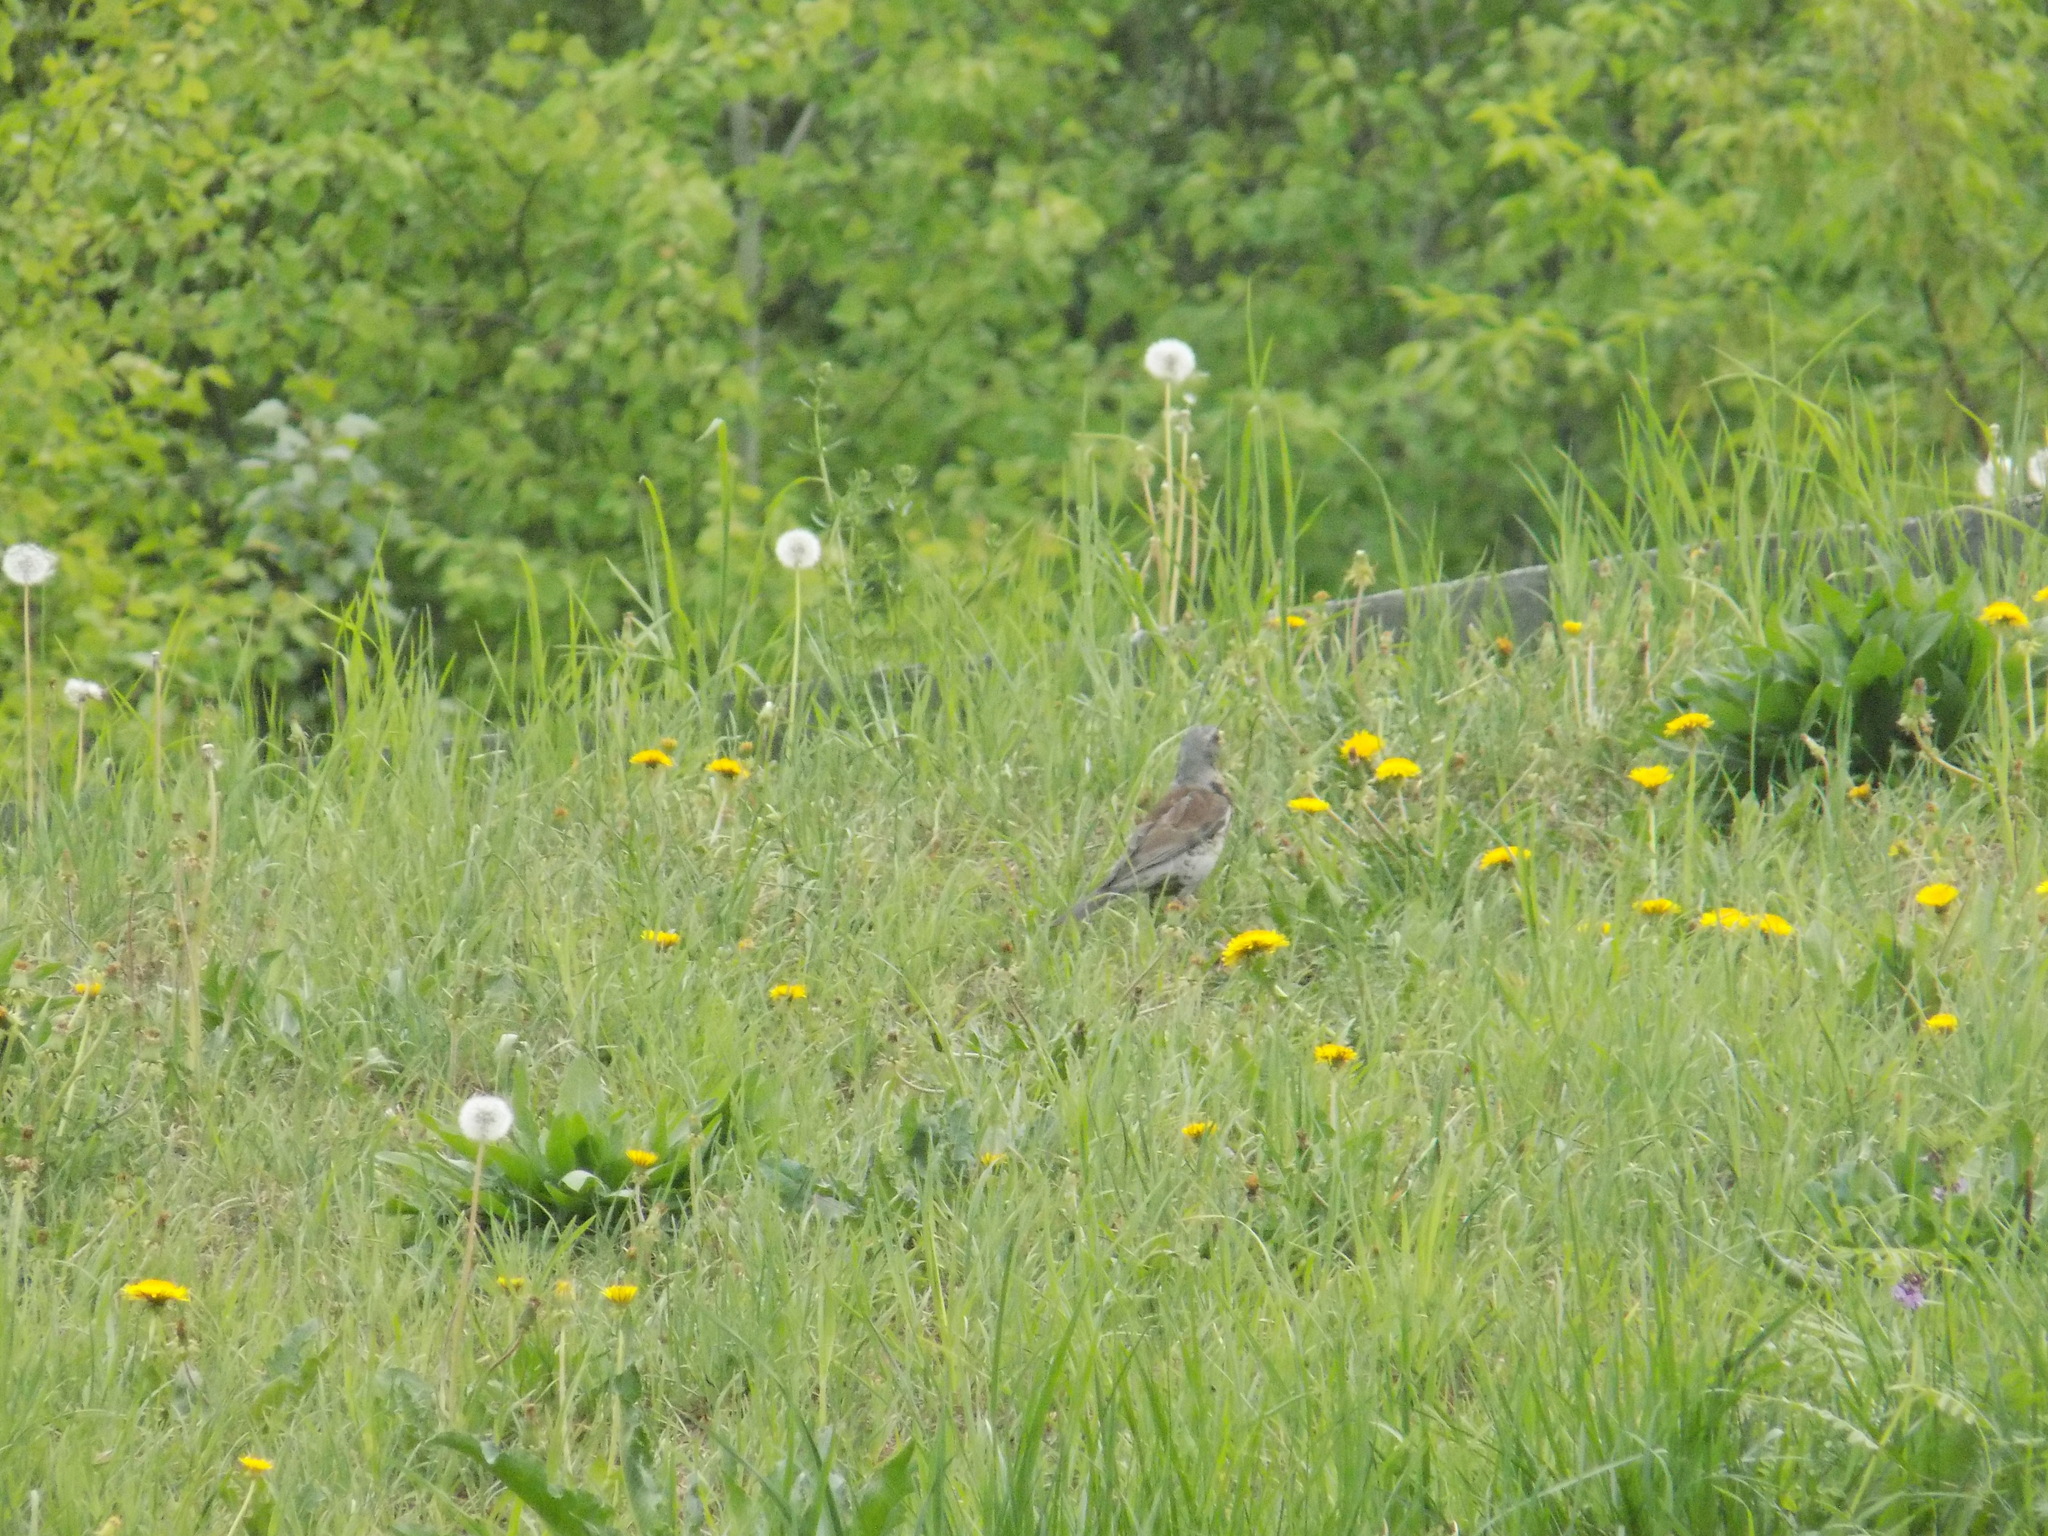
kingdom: Animalia
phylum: Chordata
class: Aves
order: Passeriformes
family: Turdidae
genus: Turdus
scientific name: Turdus pilaris
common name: Fieldfare
